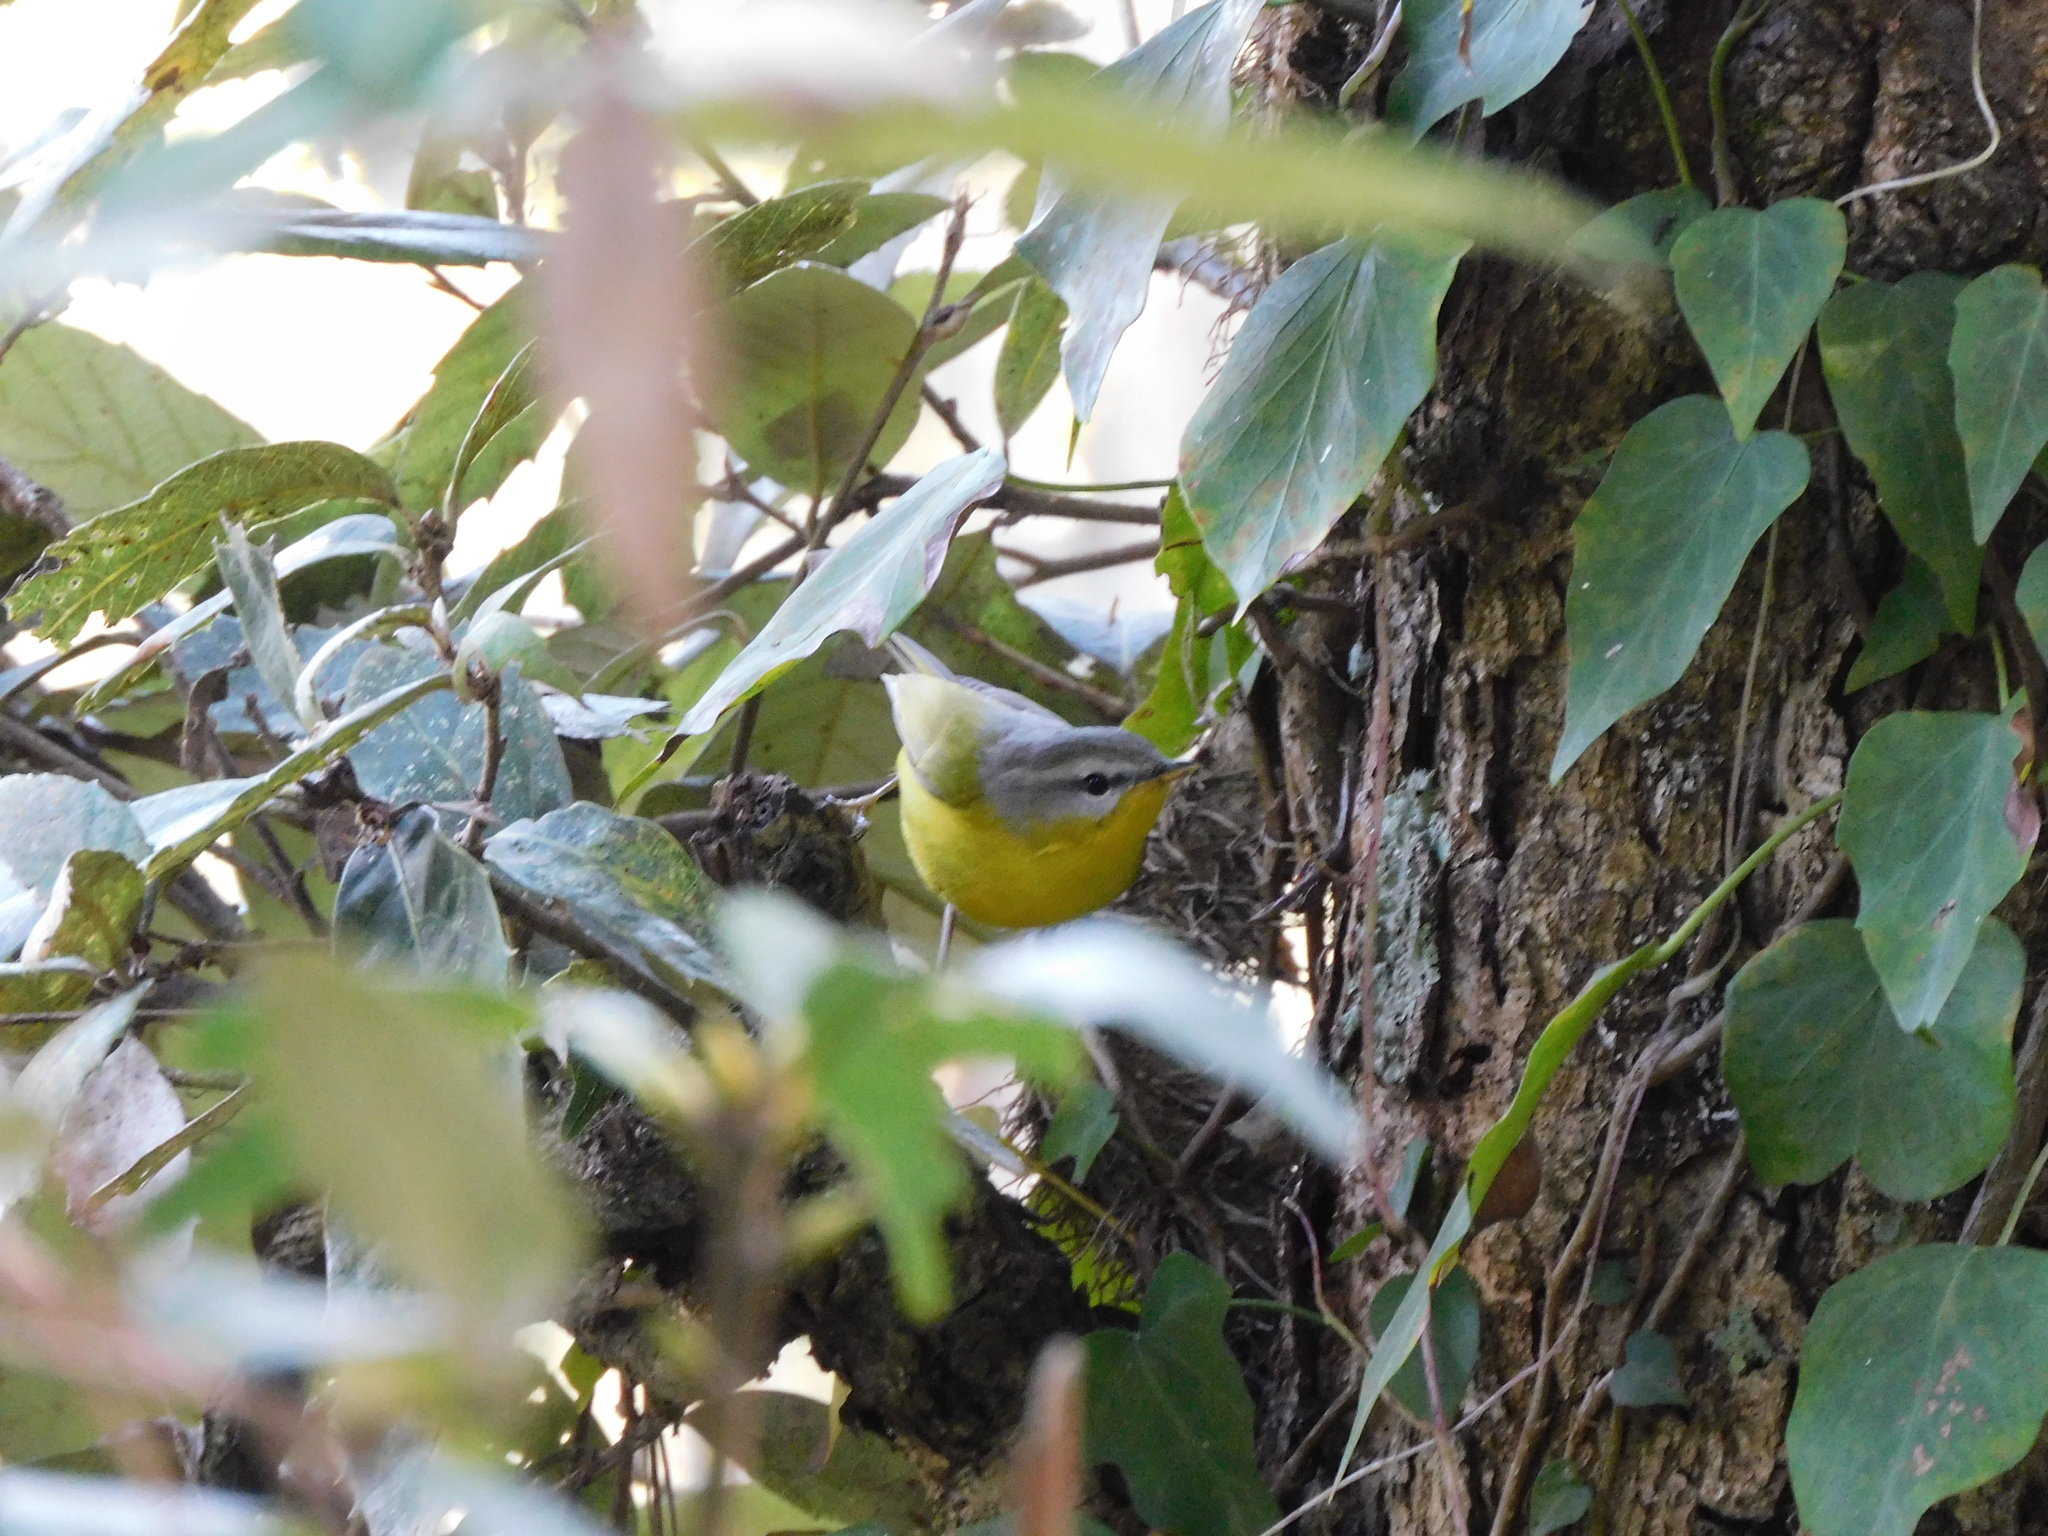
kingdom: Animalia
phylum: Chordata
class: Aves
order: Passeriformes
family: Phylloscopidae
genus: Phylloscopus
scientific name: Phylloscopus xanthoschistos
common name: Grey-hooded warbler
